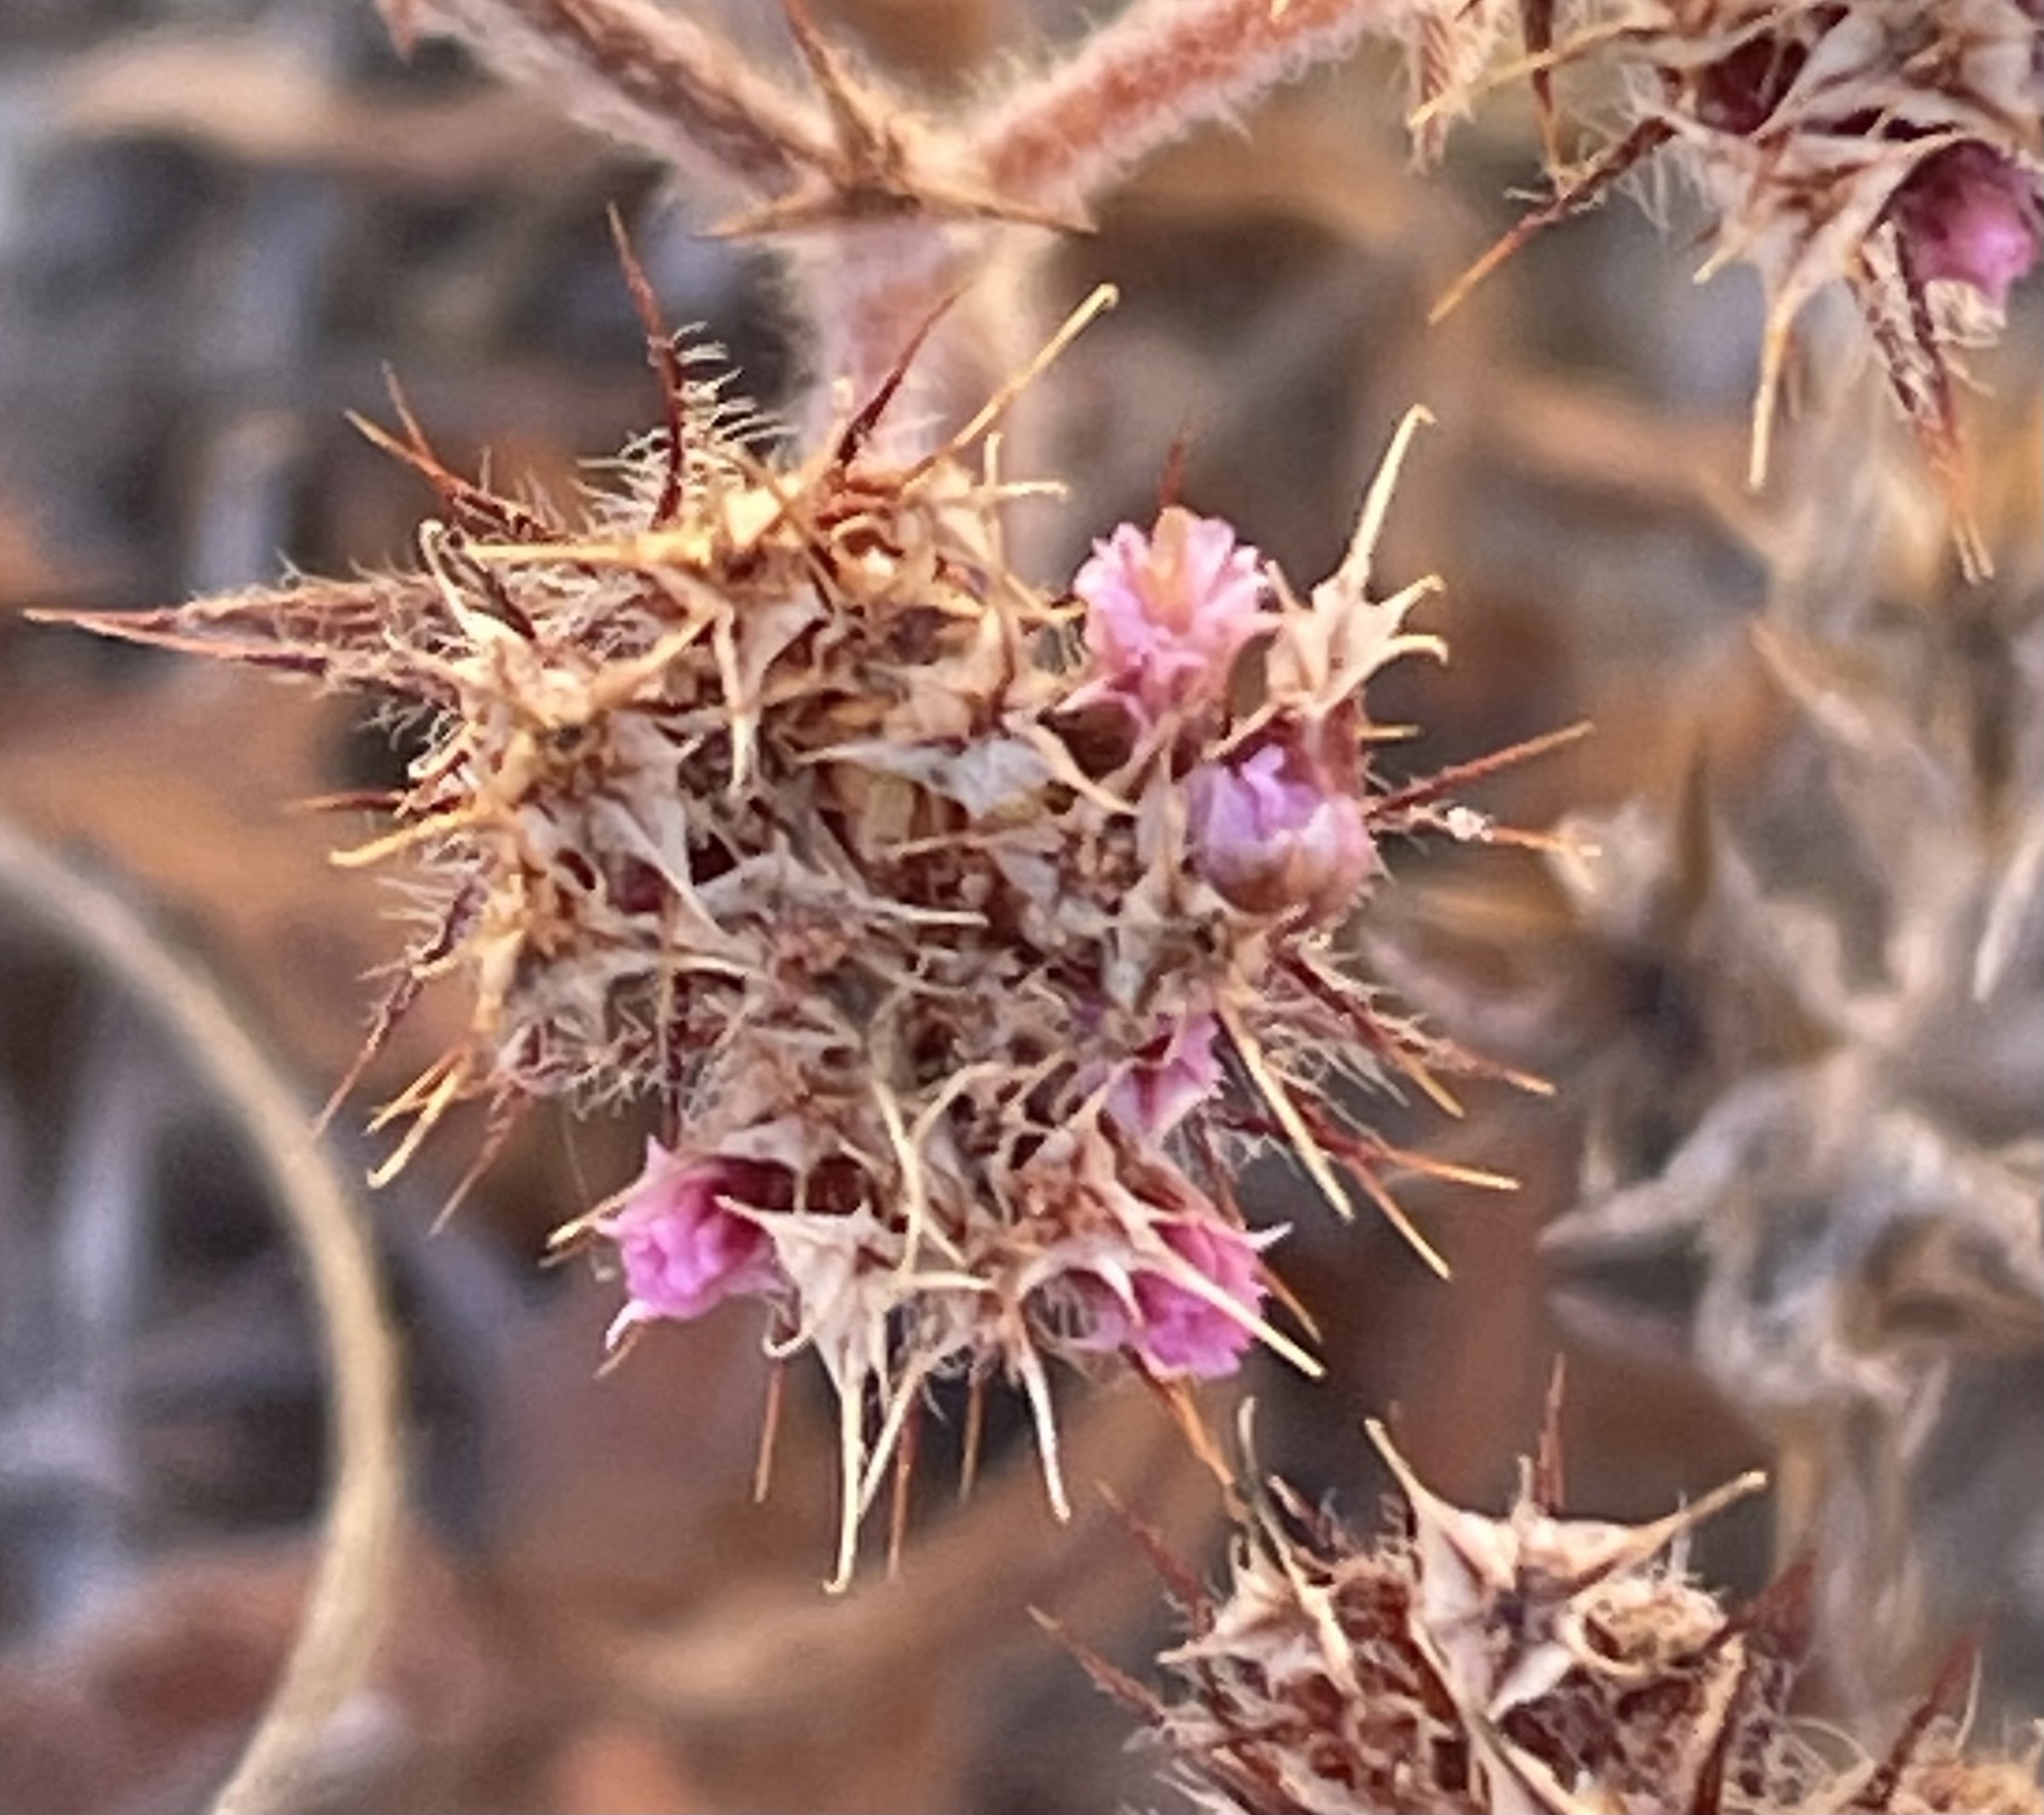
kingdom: Plantae
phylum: Tracheophyta
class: Magnoliopsida
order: Caryophyllales
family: Polygonaceae
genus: Chorizanthe
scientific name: Chorizanthe douglasii
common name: Douglas's spineflower
